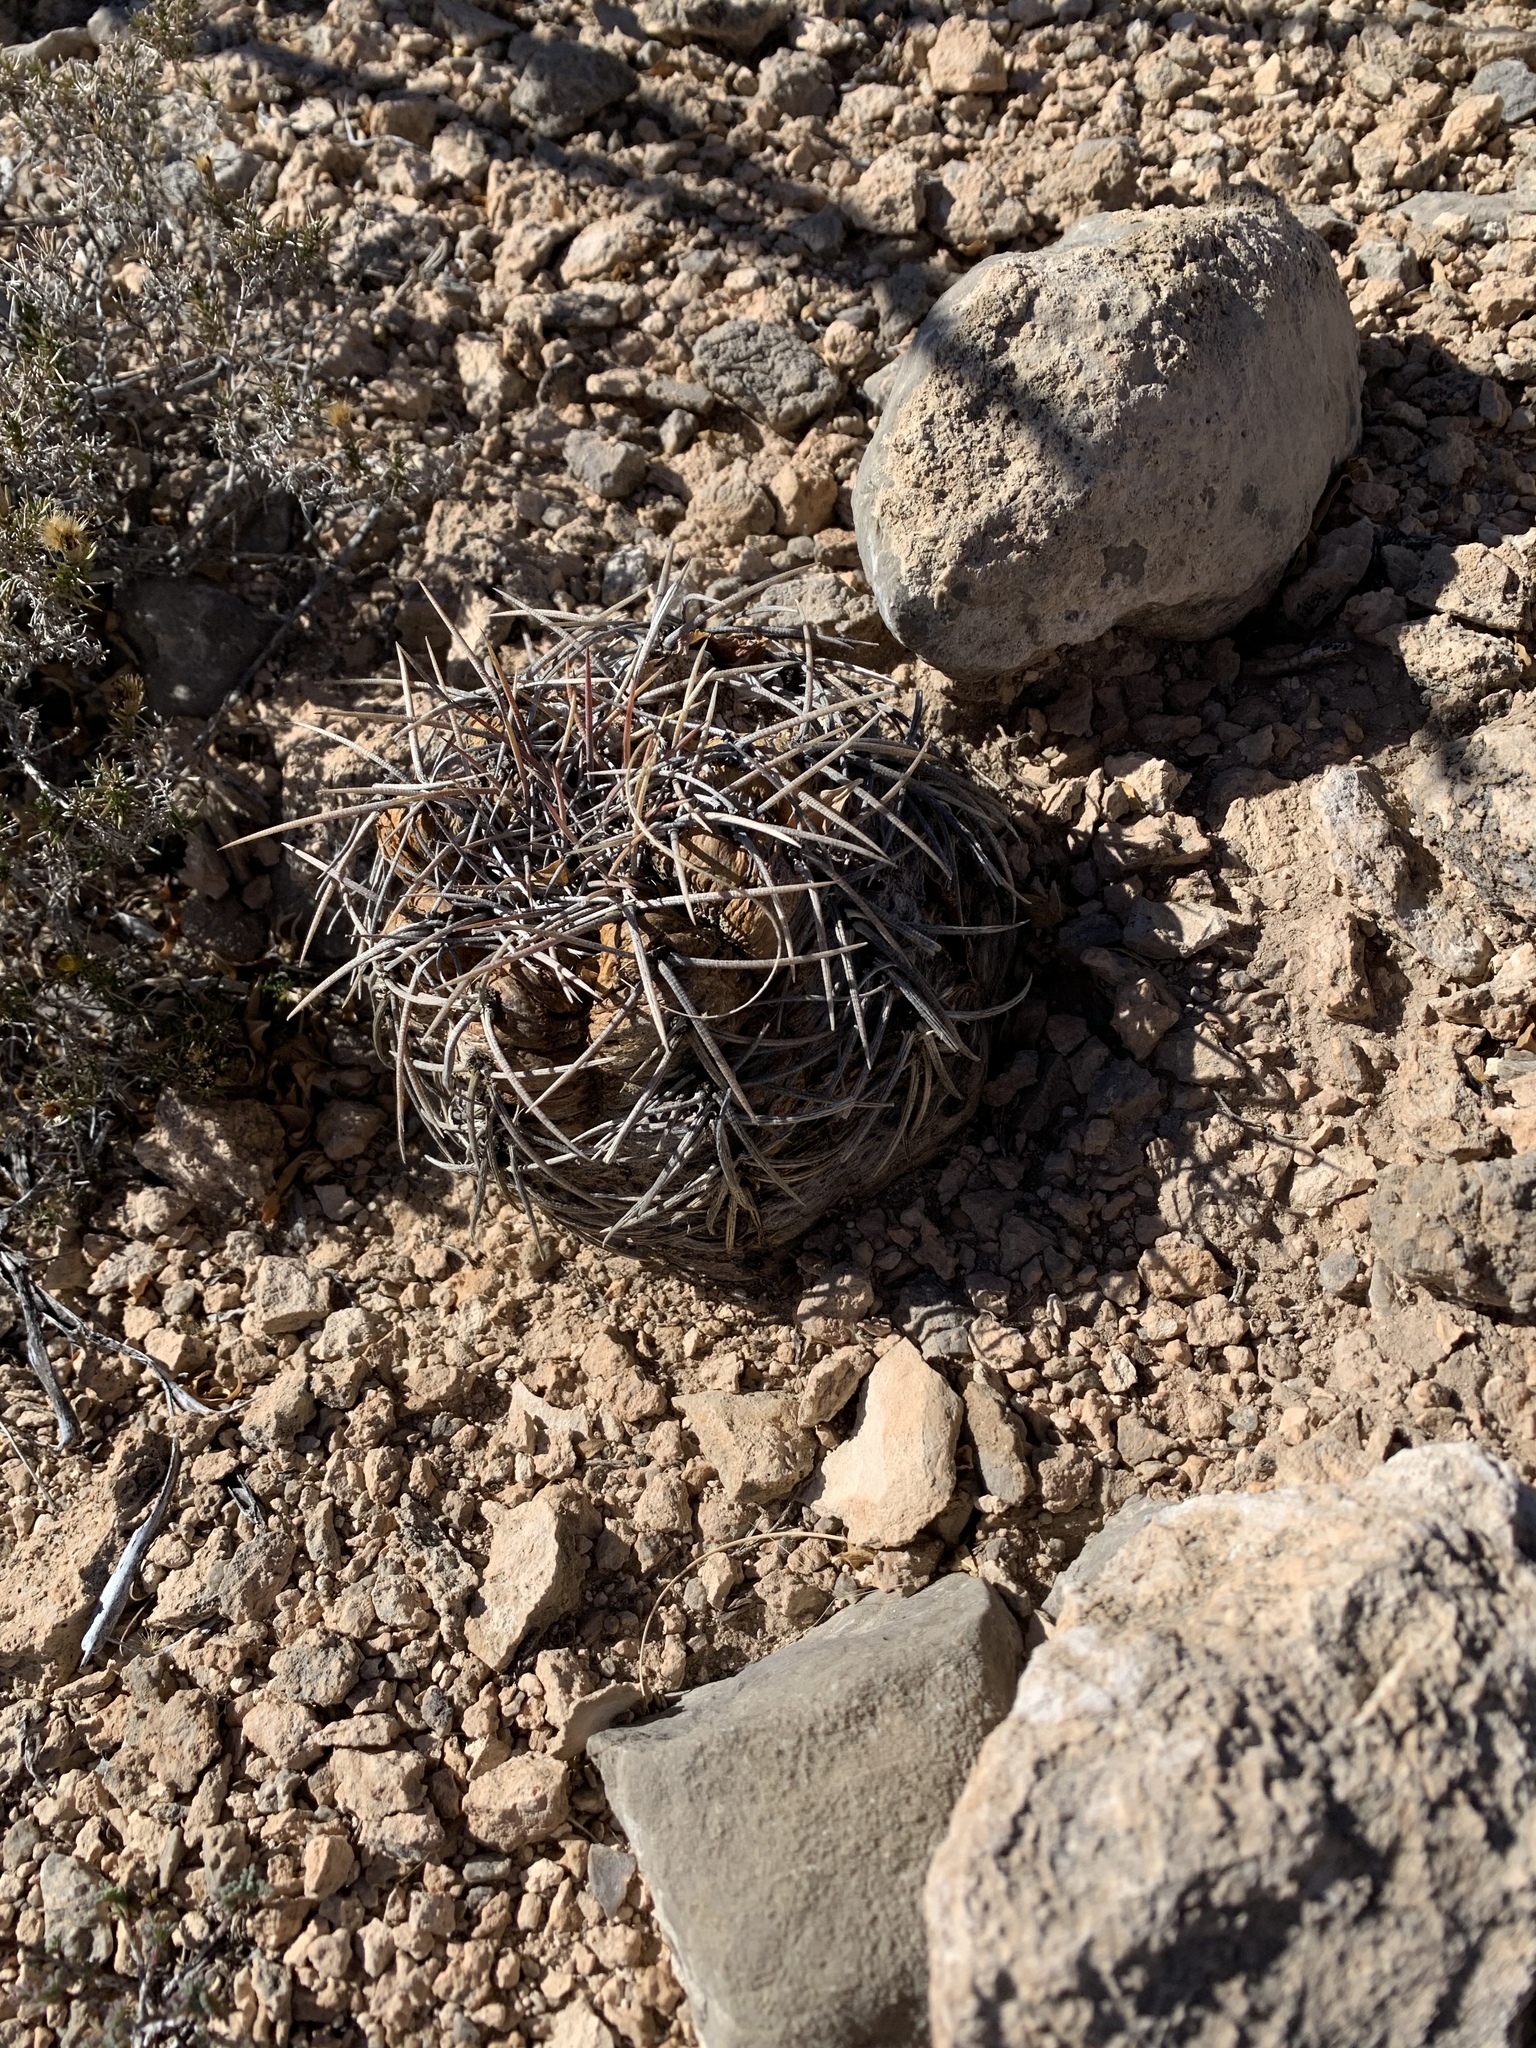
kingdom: Plantae
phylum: Tracheophyta
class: Magnoliopsida
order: Caryophyllales
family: Cactaceae
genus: Echinocactus
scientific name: Echinocactus horizonthalonius
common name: Devilshead
